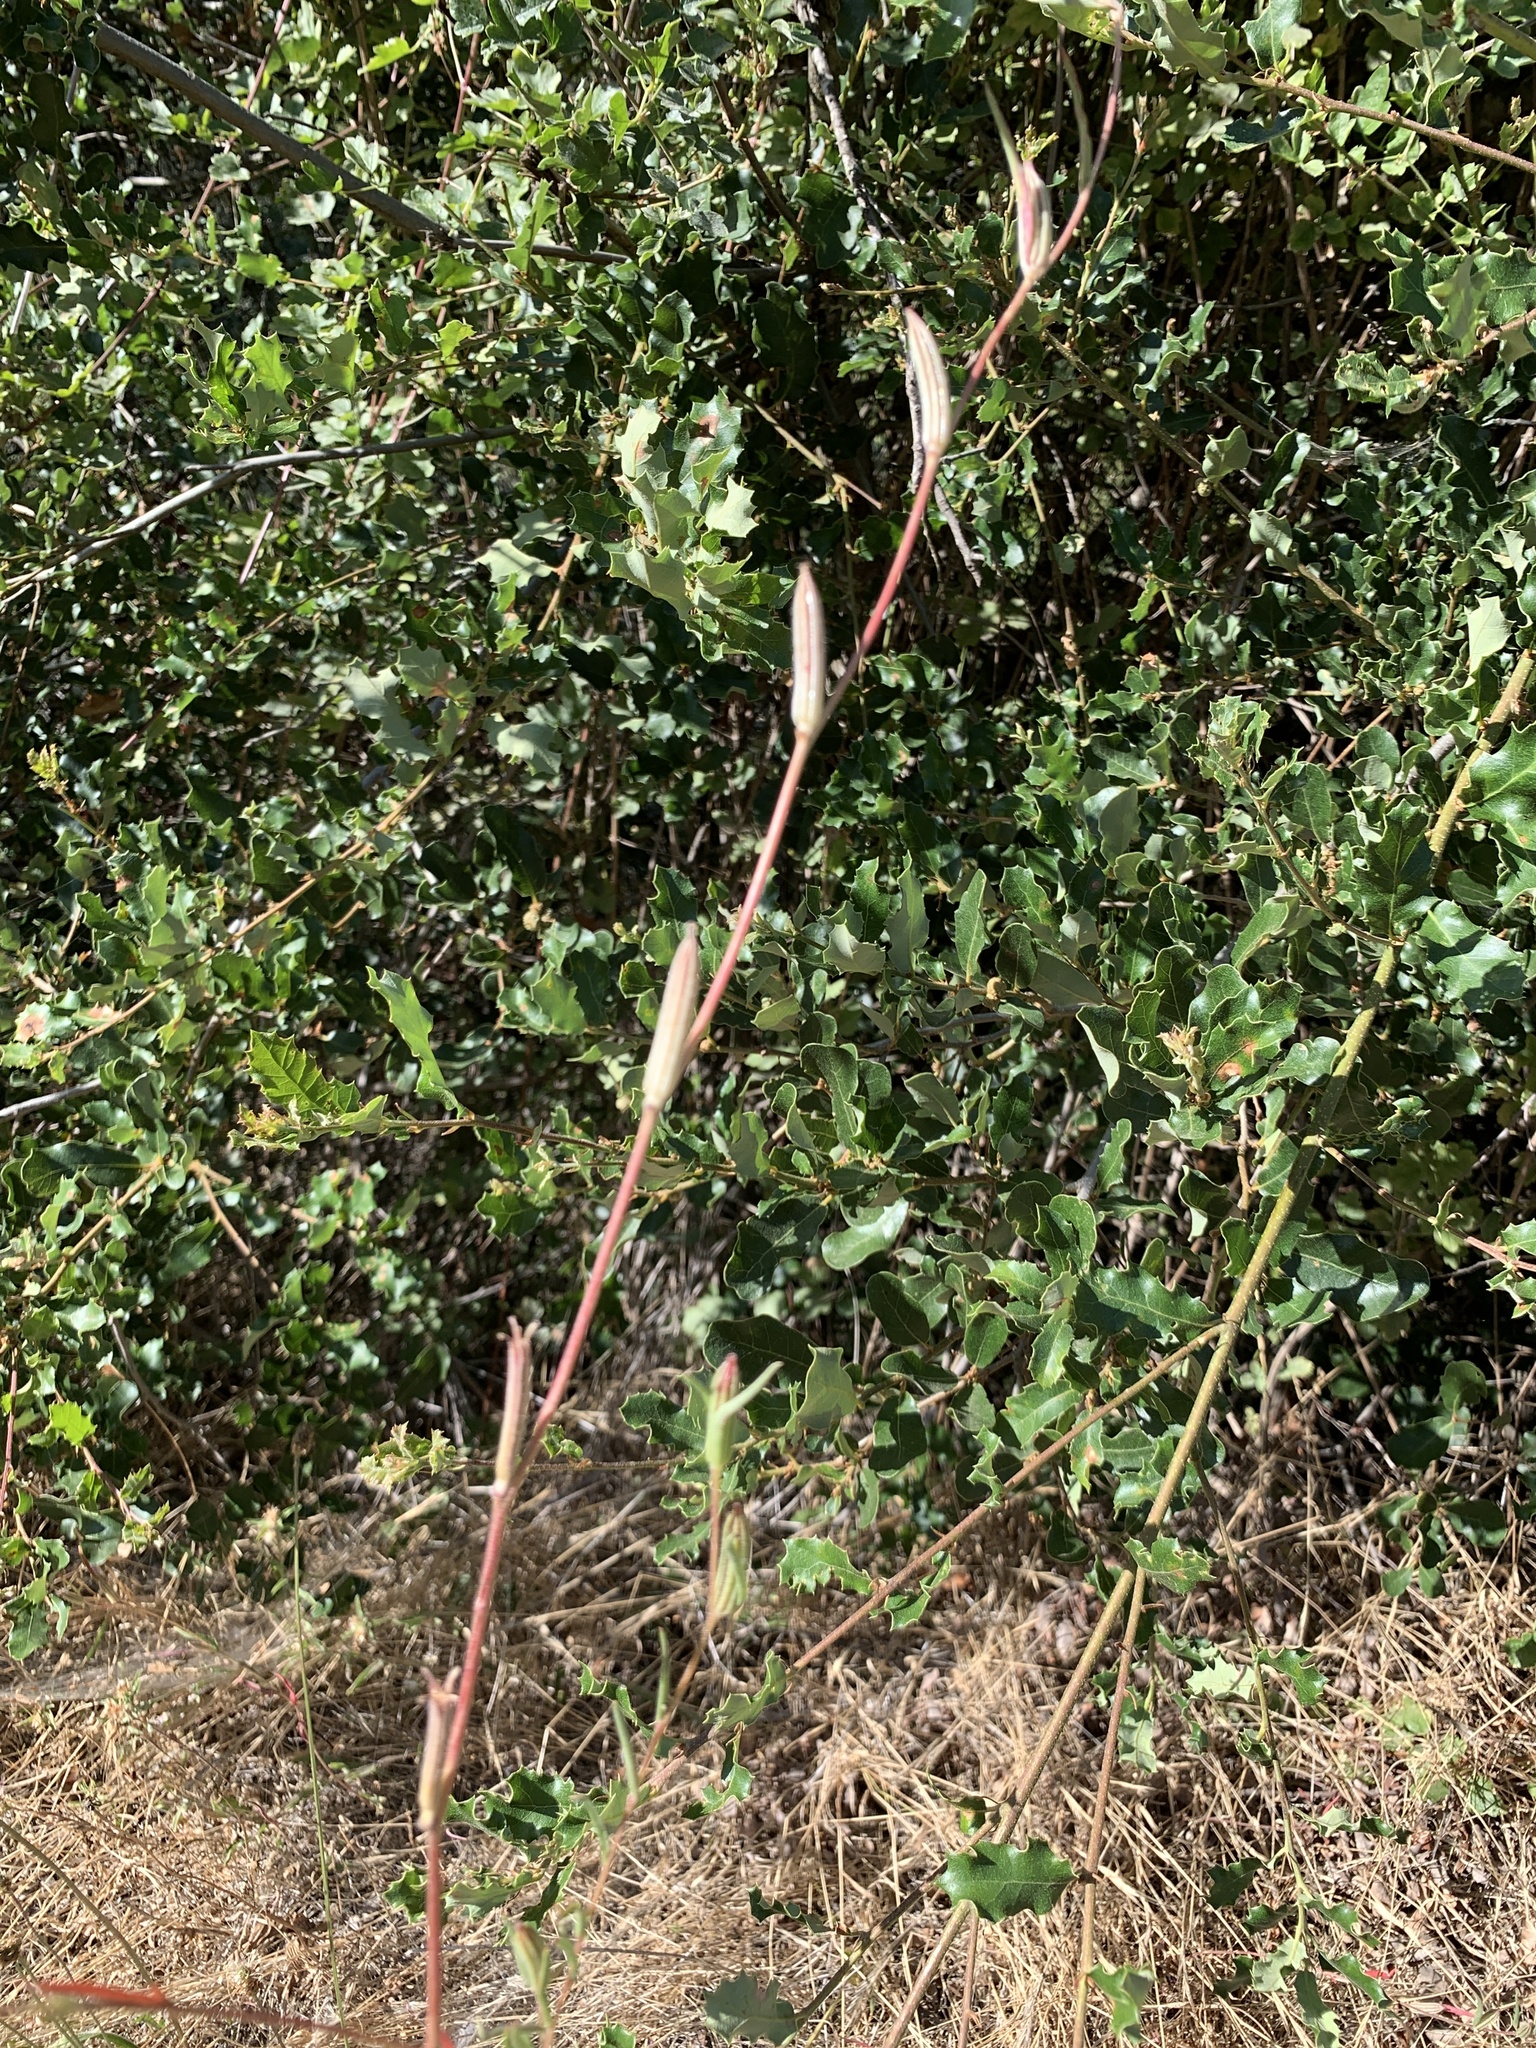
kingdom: Plantae
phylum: Tracheophyta
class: Magnoliopsida
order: Myrtales
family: Onagraceae
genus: Clarkia
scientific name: Clarkia purpurea
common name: Purple clarkia
